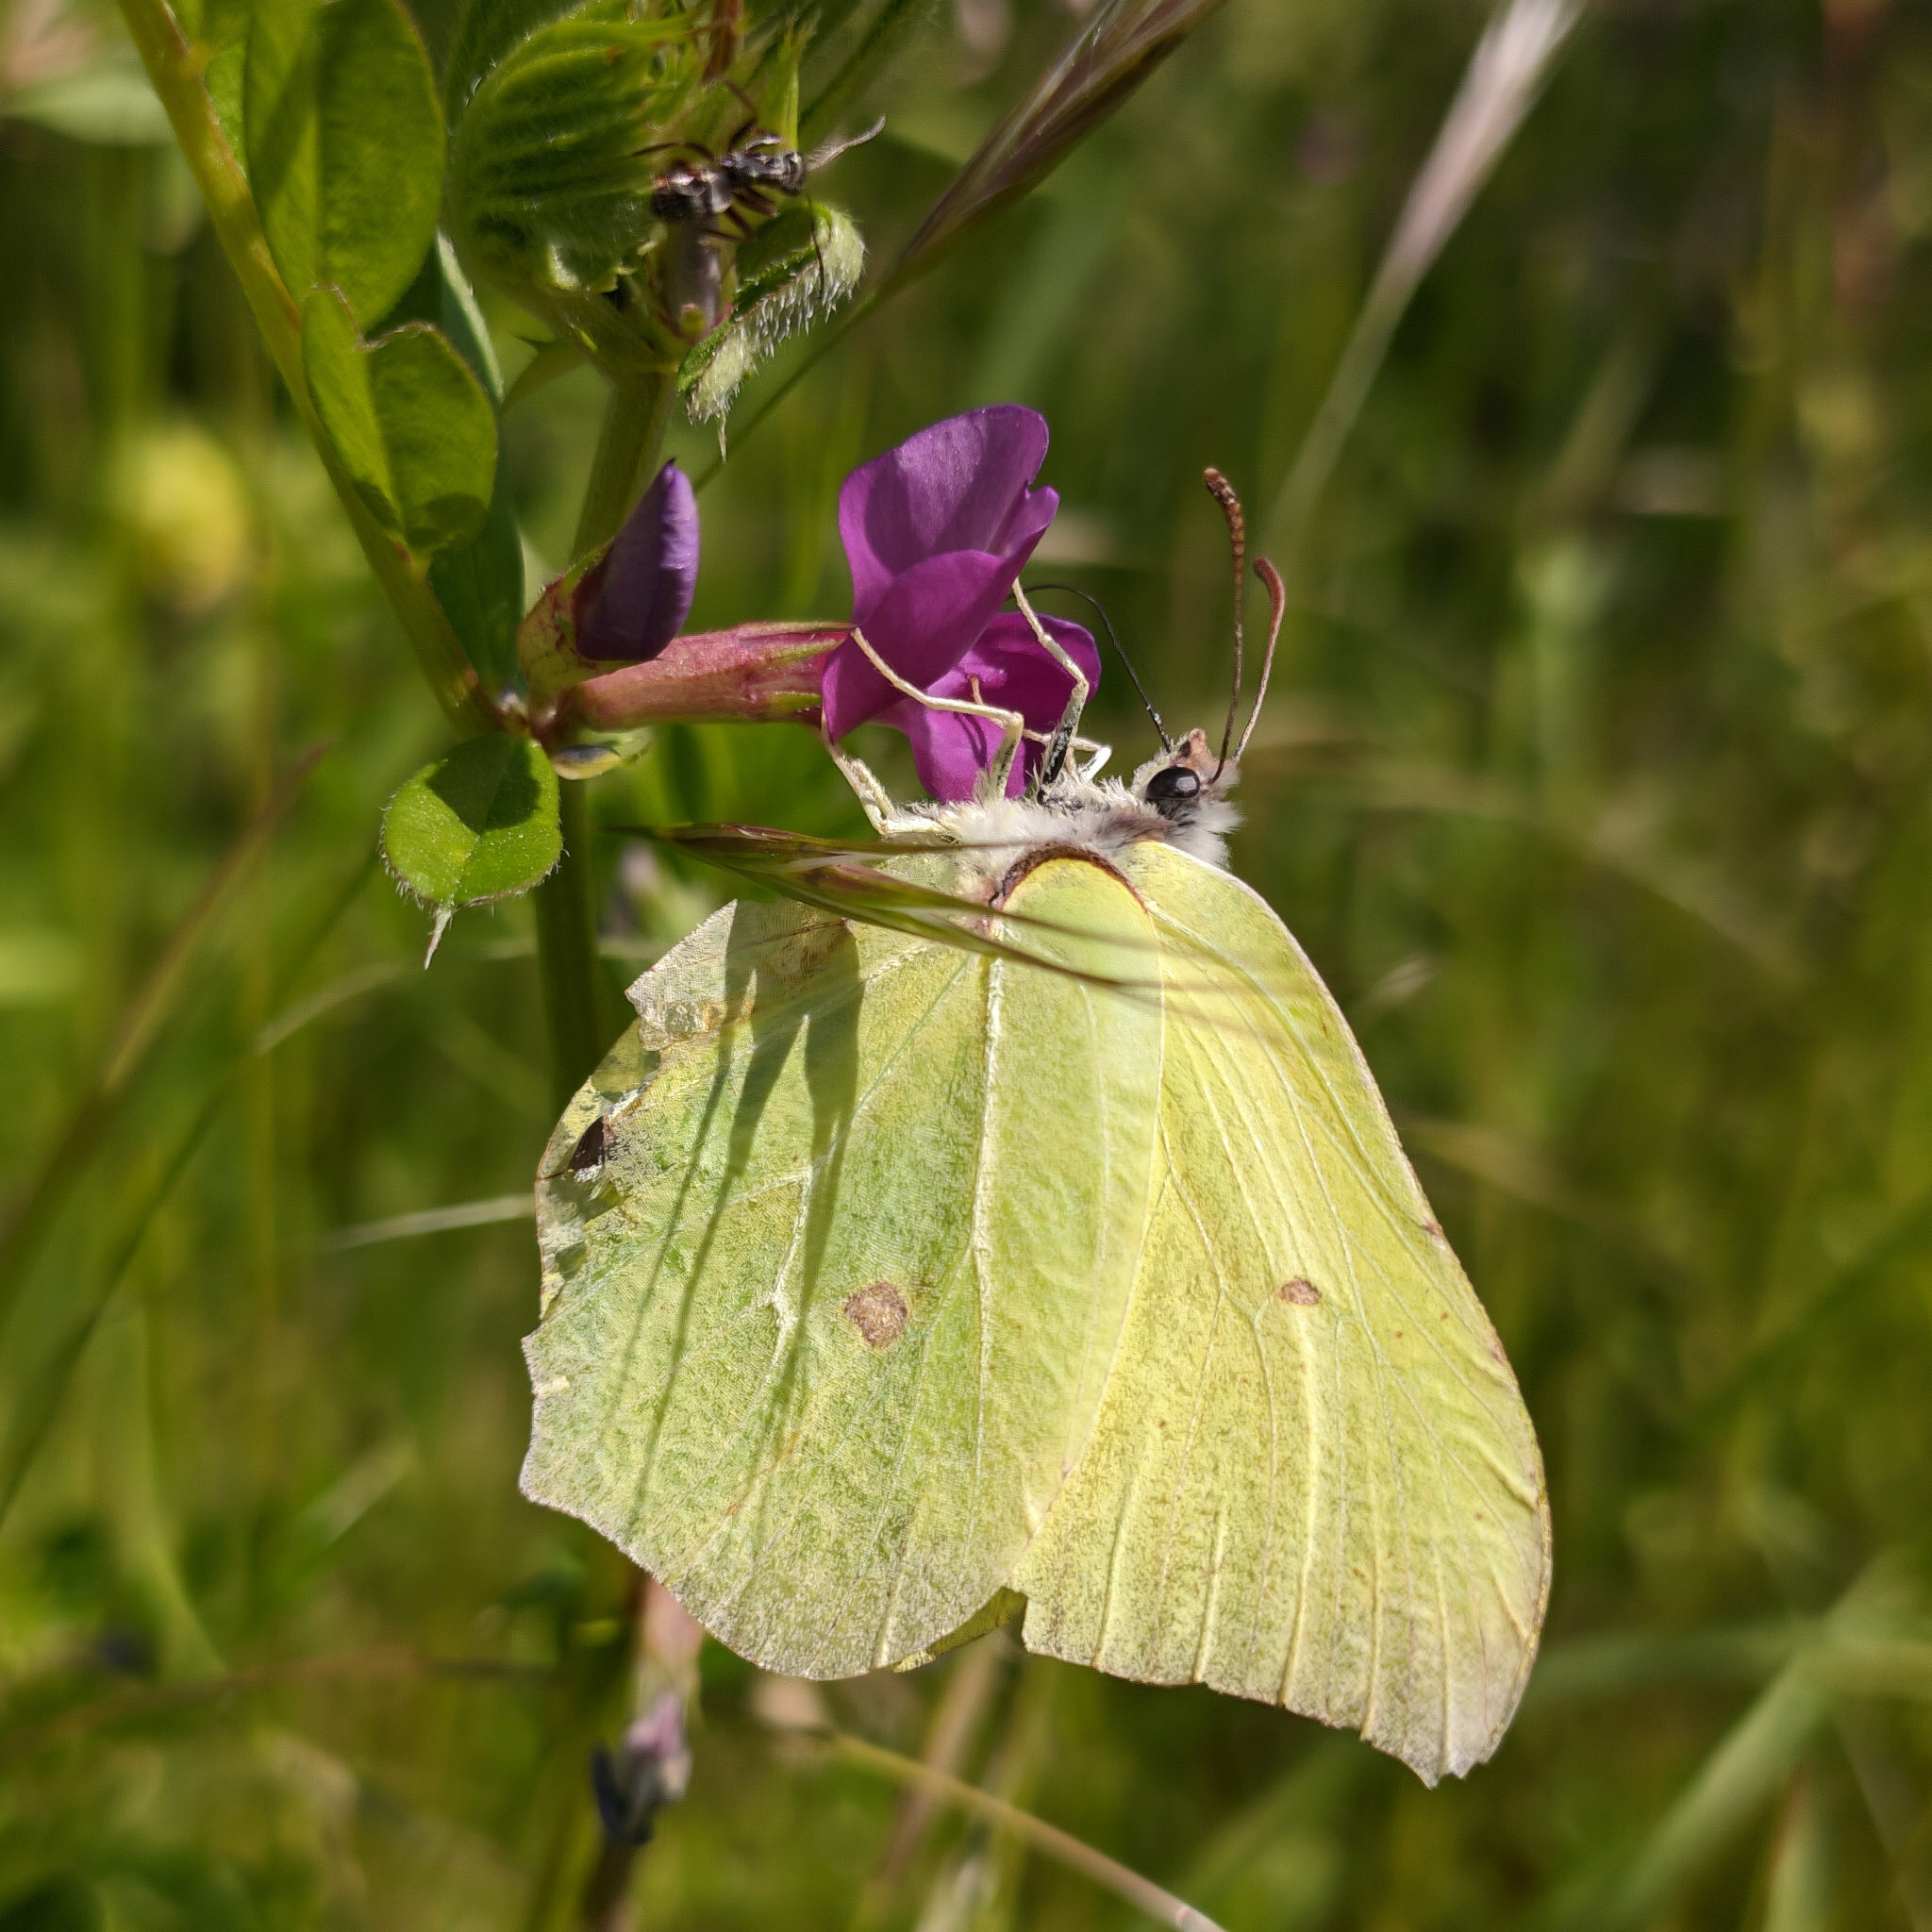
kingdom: Animalia
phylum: Arthropoda
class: Insecta
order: Lepidoptera
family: Pieridae
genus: Gonepteryx
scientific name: Gonepteryx rhamni
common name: Brimstone
